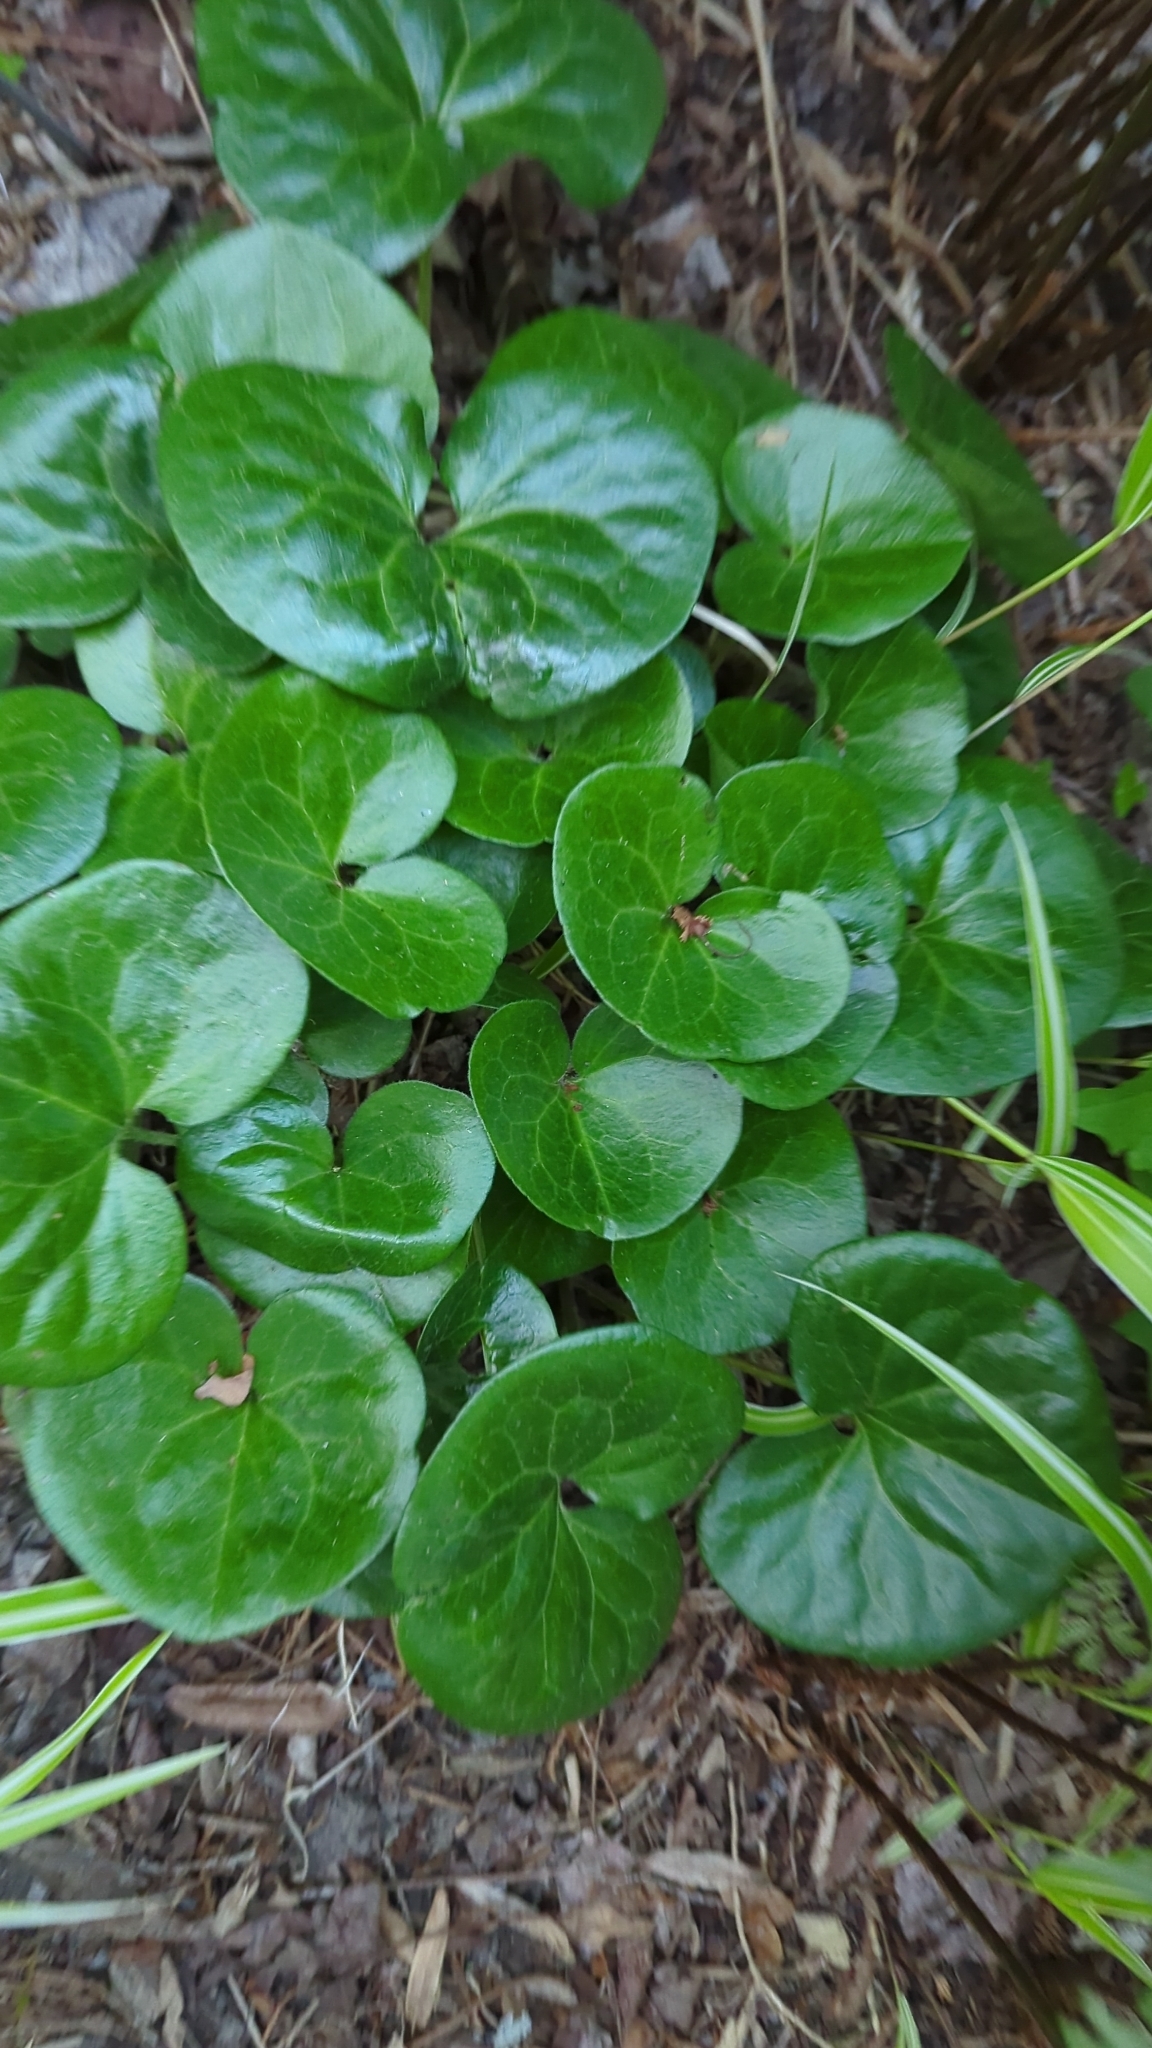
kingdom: Plantae
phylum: Tracheophyta
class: Magnoliopsida
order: Piperales
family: Aristolochiaceae
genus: Asarum
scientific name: Asarum europaeum
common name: Asarabacca
